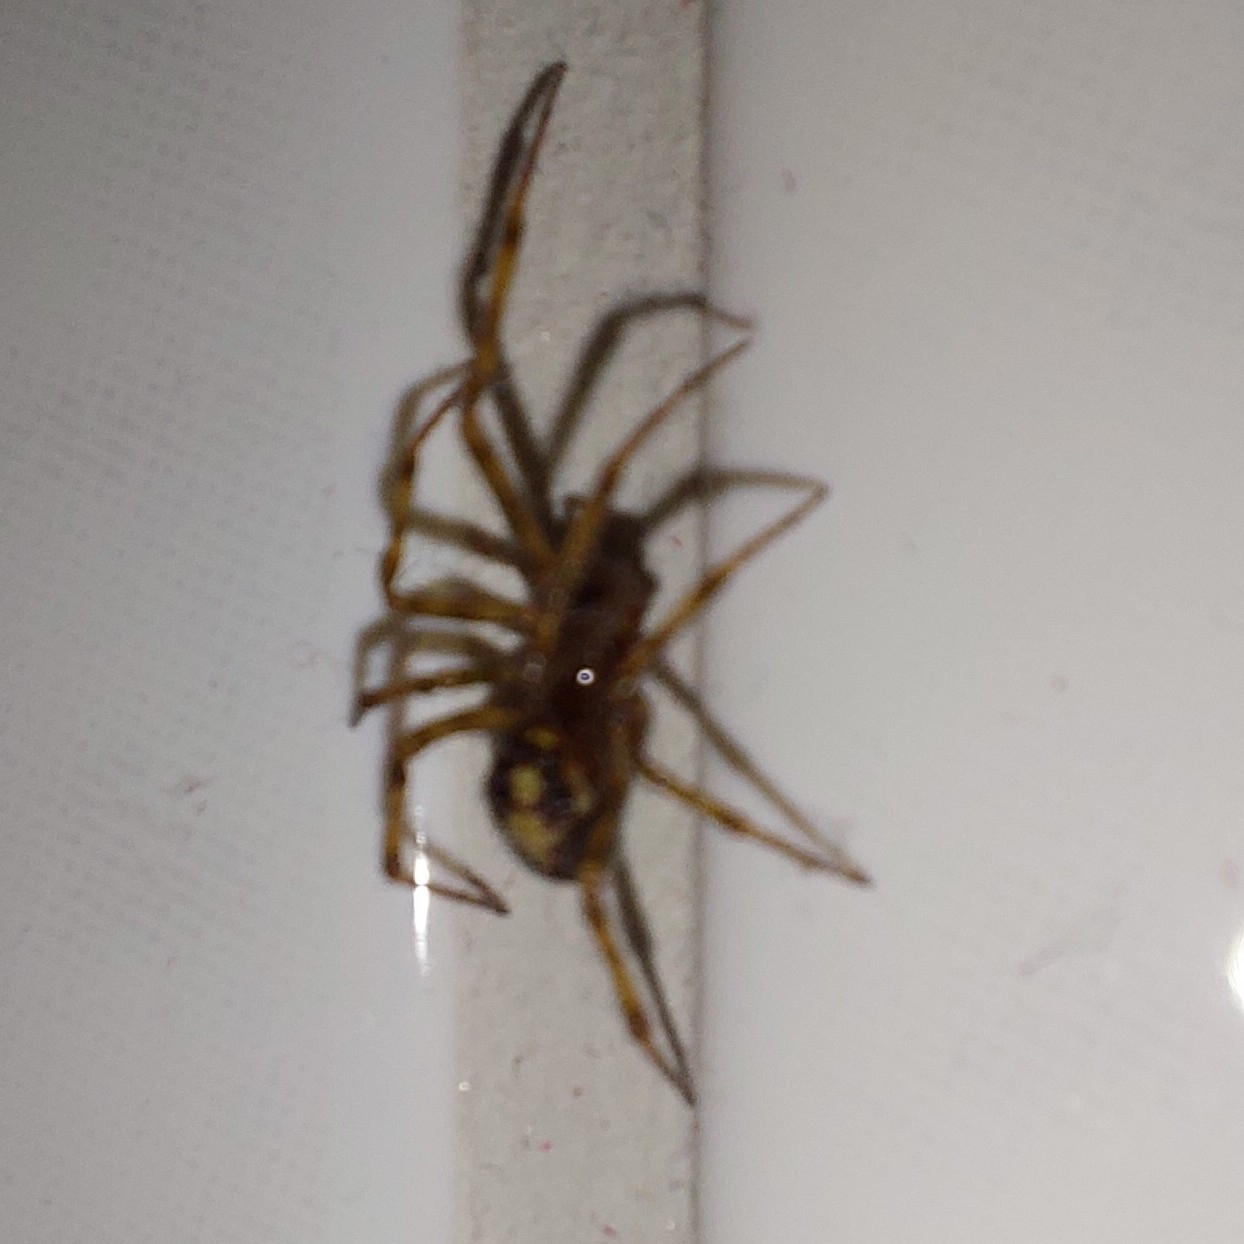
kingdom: Animalia
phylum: Arthropoda
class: Arachnida
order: Araneae
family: Theridiidae
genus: Steatoda
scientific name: Steatoda triangulosa
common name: Triangulate bud spider
